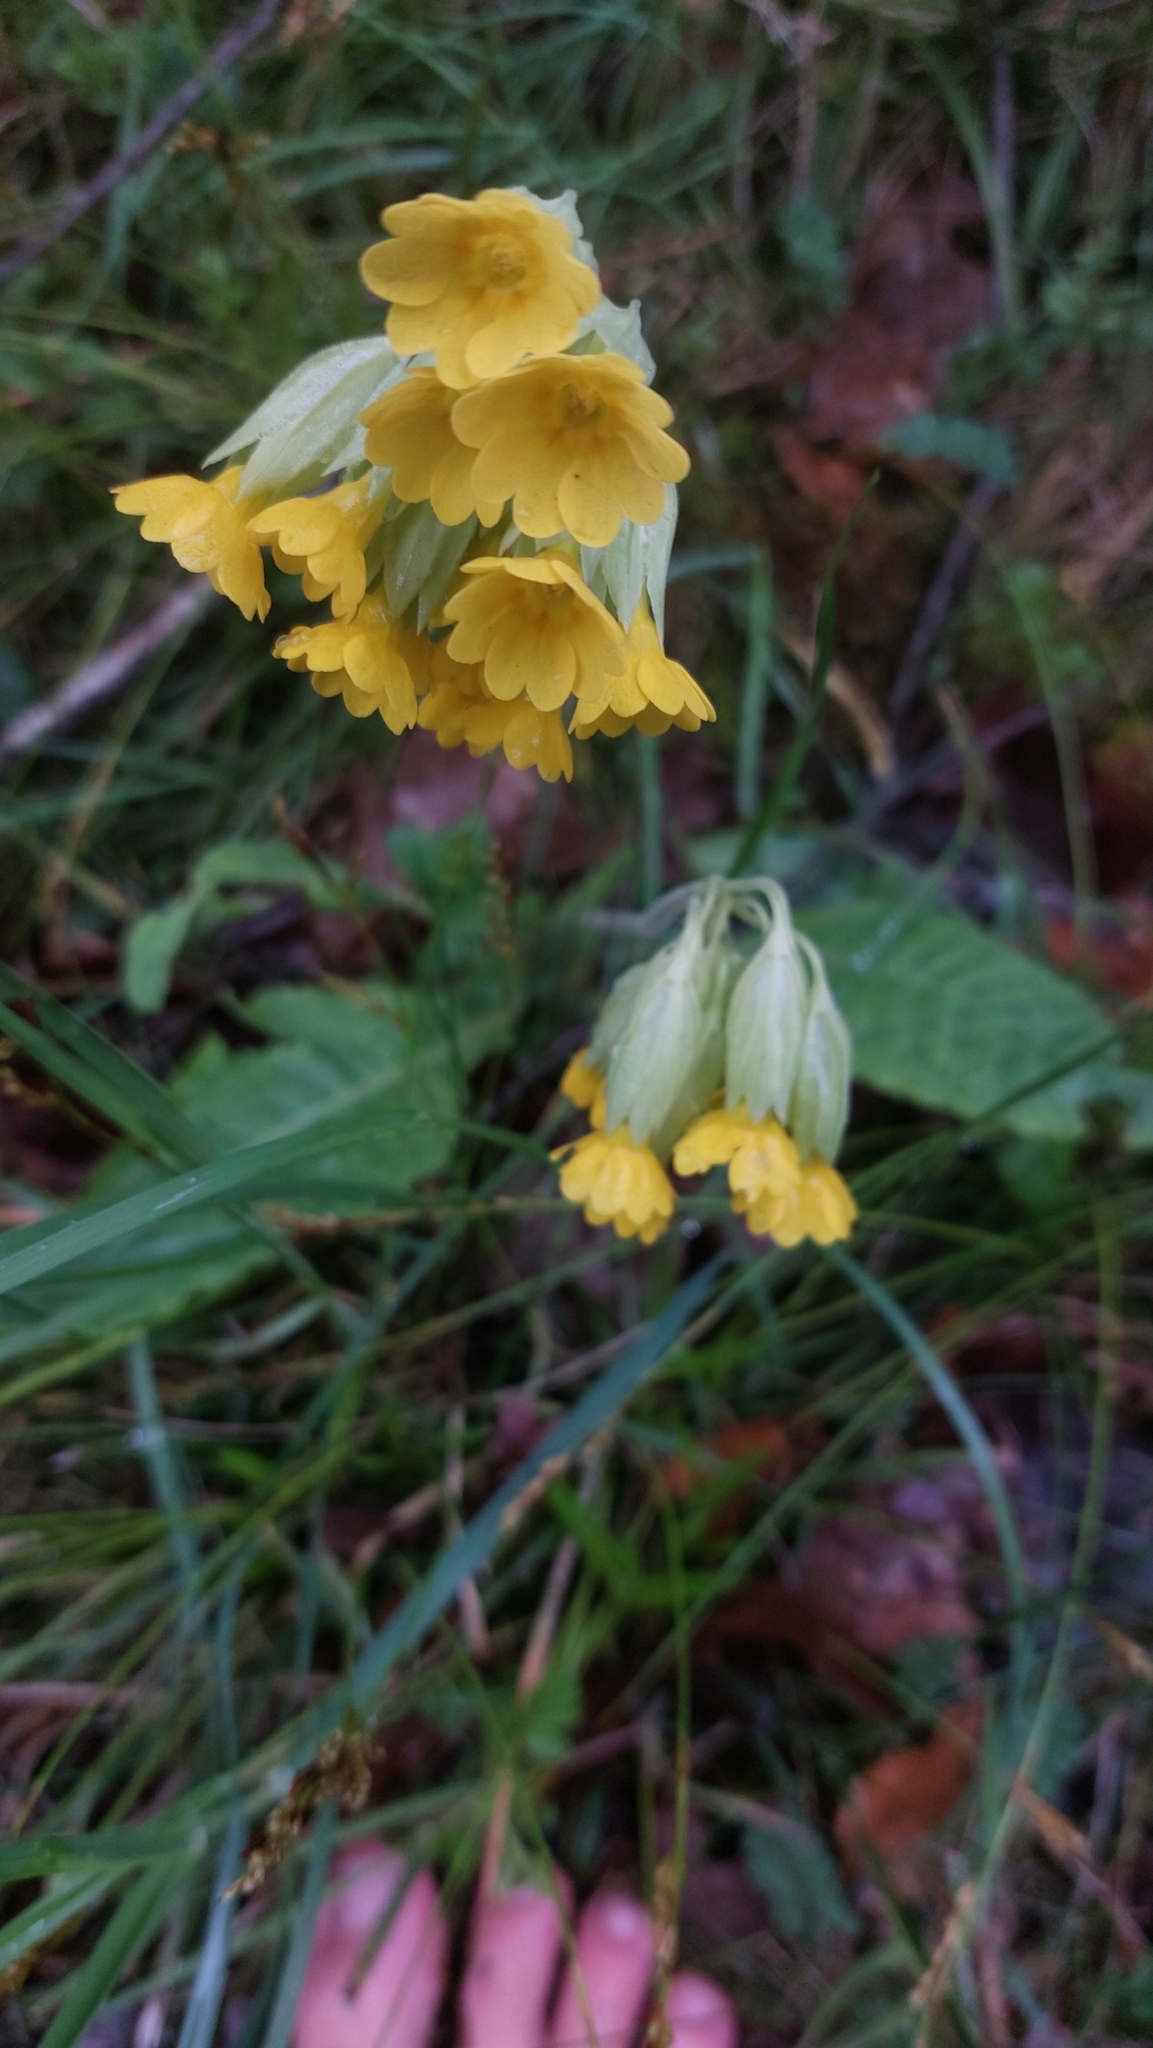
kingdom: Plantae
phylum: Tracheophyta
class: Magnoliopsida
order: Ericales
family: Primulaceae
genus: Primula
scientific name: Primula veris
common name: Cowslip
